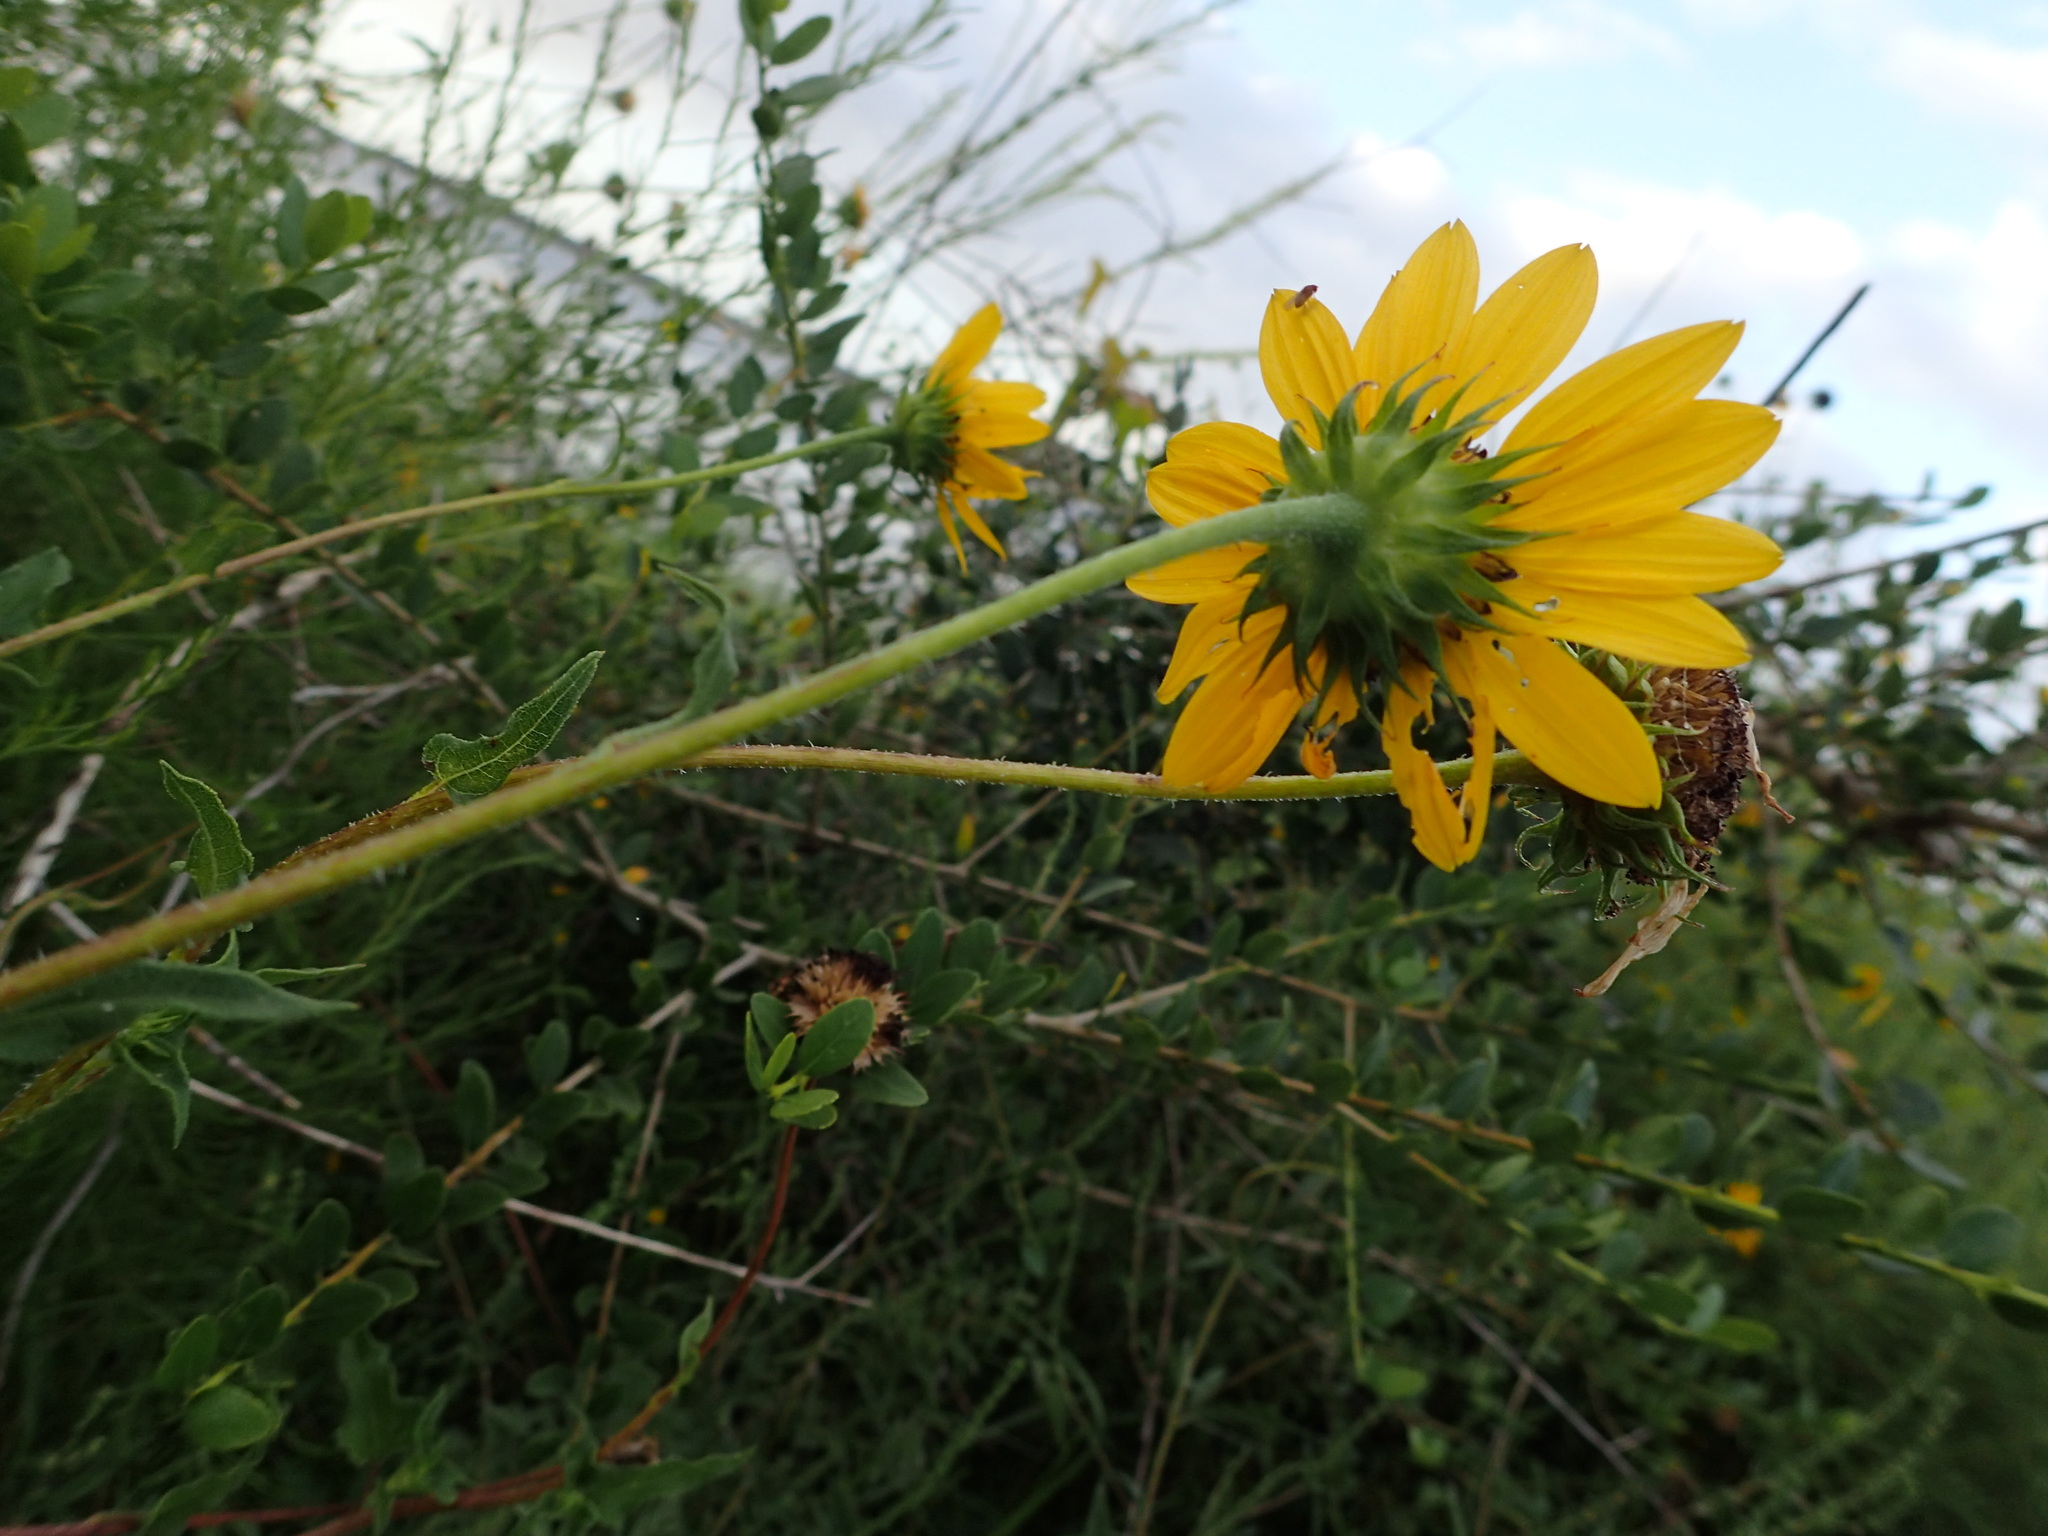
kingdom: Plantae
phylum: Tracheophyta
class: Magnoliopsida
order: Asterales
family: Asteraceae
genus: Helianthus
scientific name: Helianthus debilis
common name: Weak sunflower
